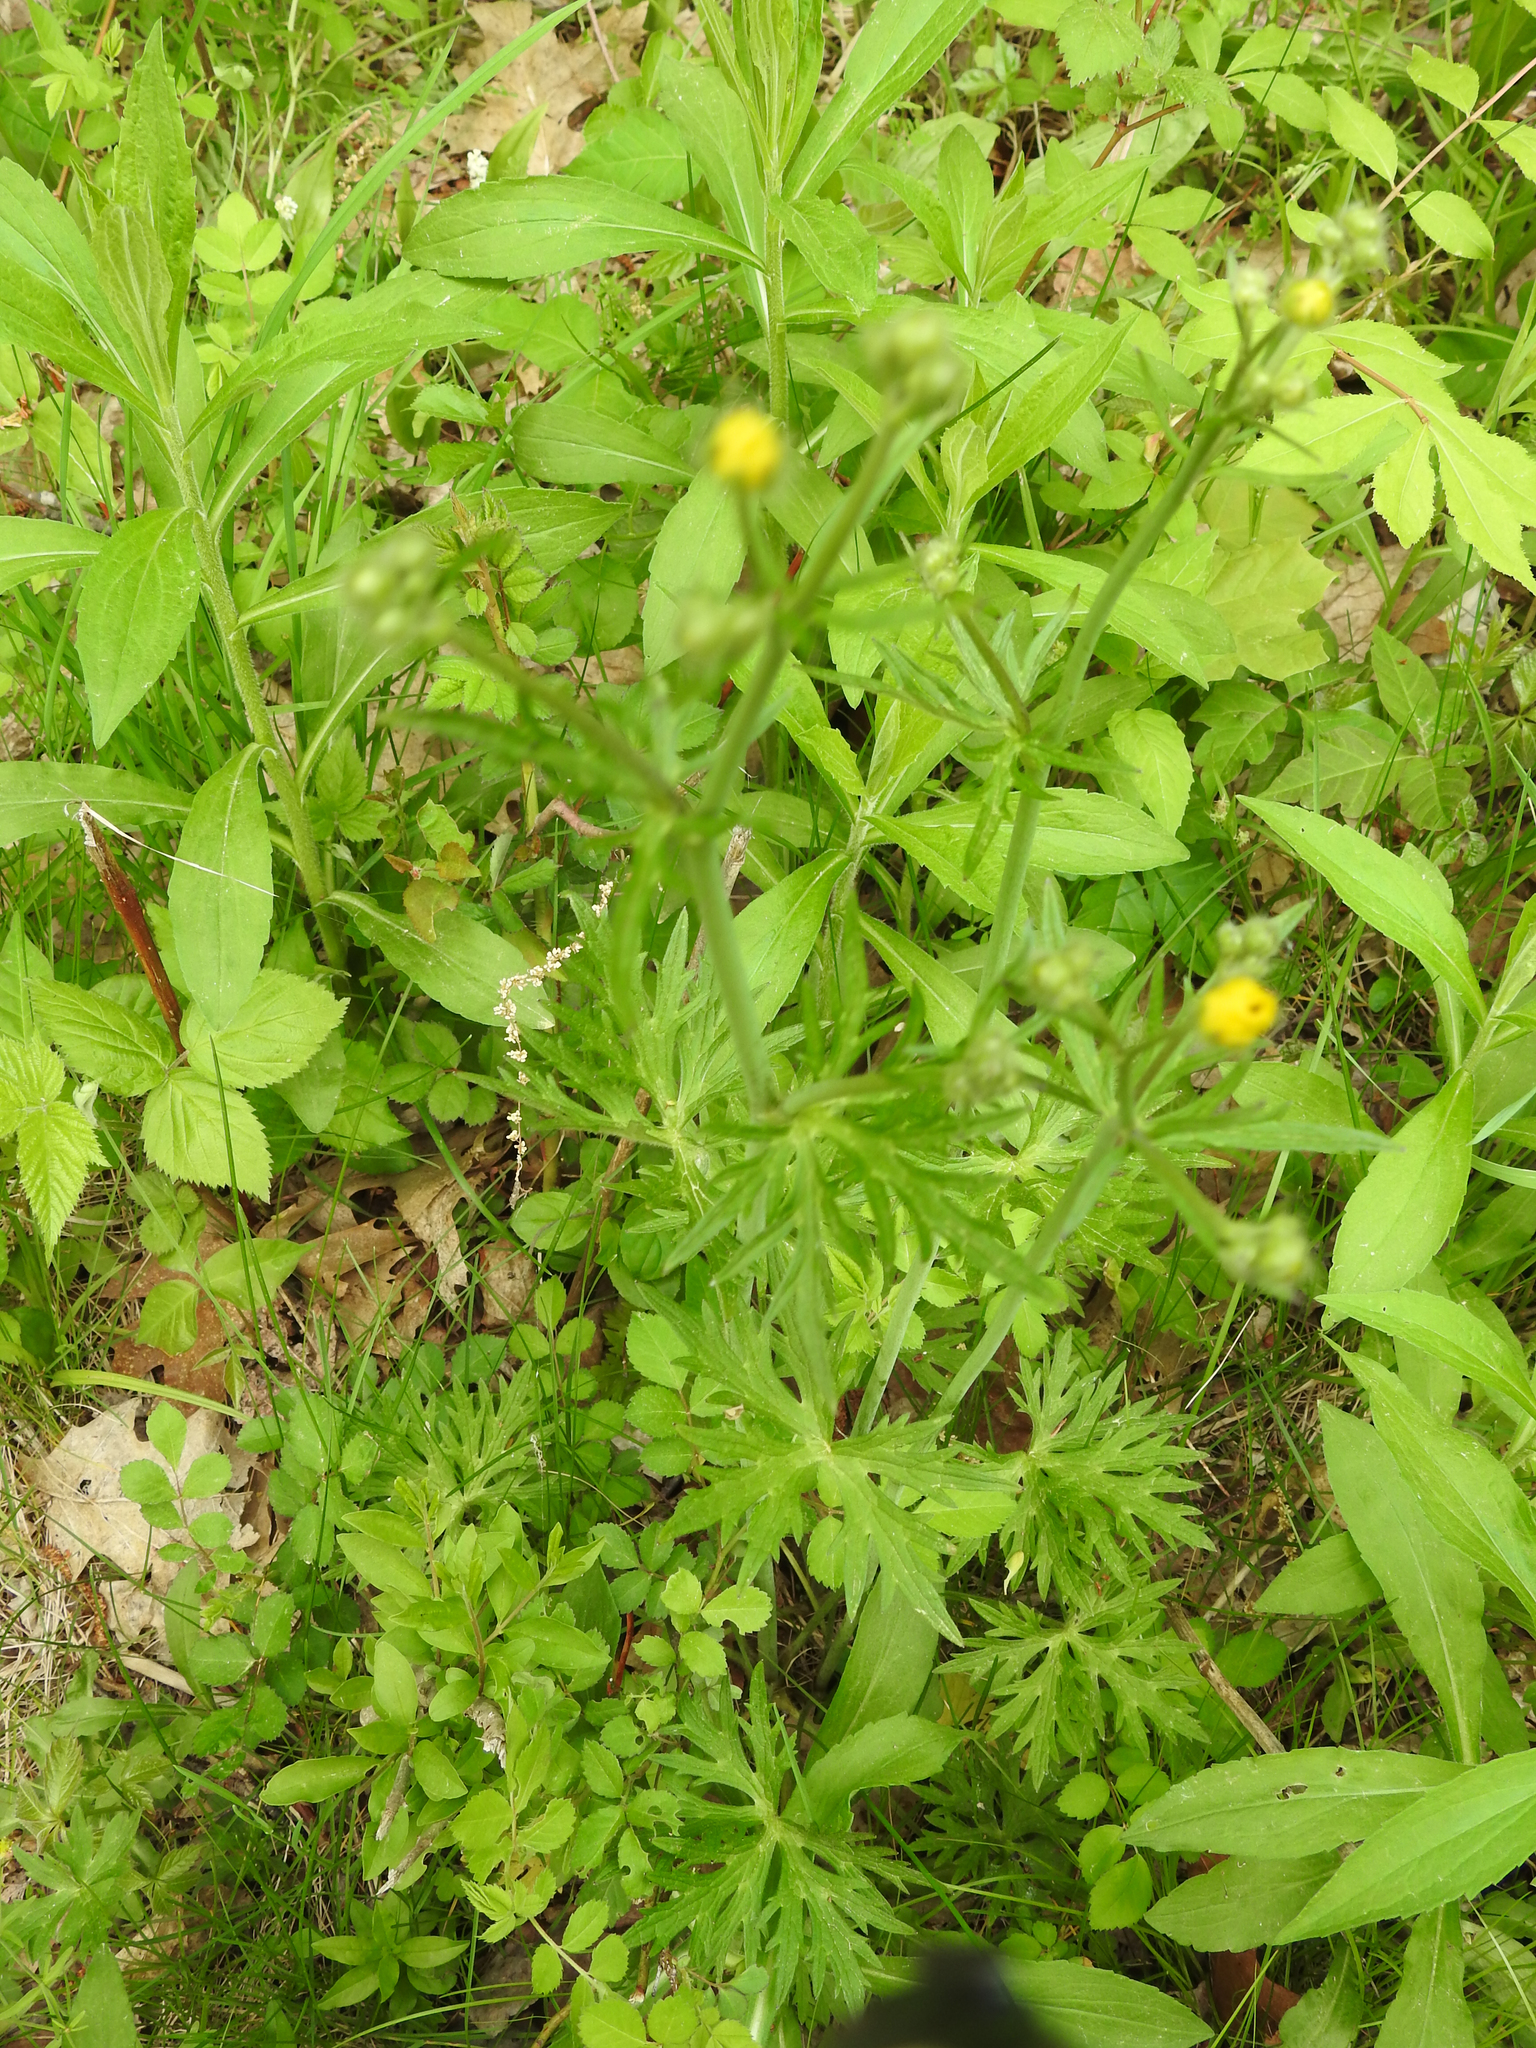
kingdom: Plantae
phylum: Tracheophyta
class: Magnoliopsida
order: Rosales
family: Rosaceae
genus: Potentilla
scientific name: Potentilla argentea
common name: Hoary cinquefoil
